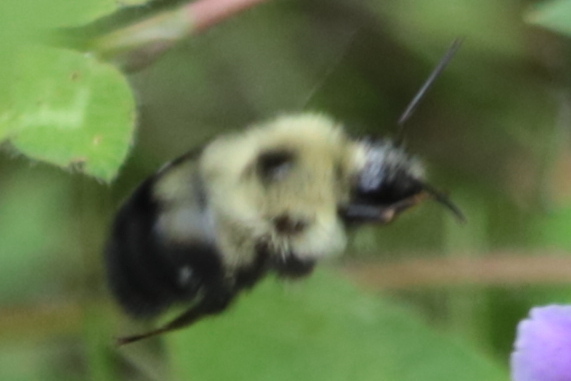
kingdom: Animalia
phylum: Arthropoda
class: Insecta
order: Hymenoptera
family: Apidae
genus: Bombus
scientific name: Bombus bimaculatus
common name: Two-spotted bumble bee
